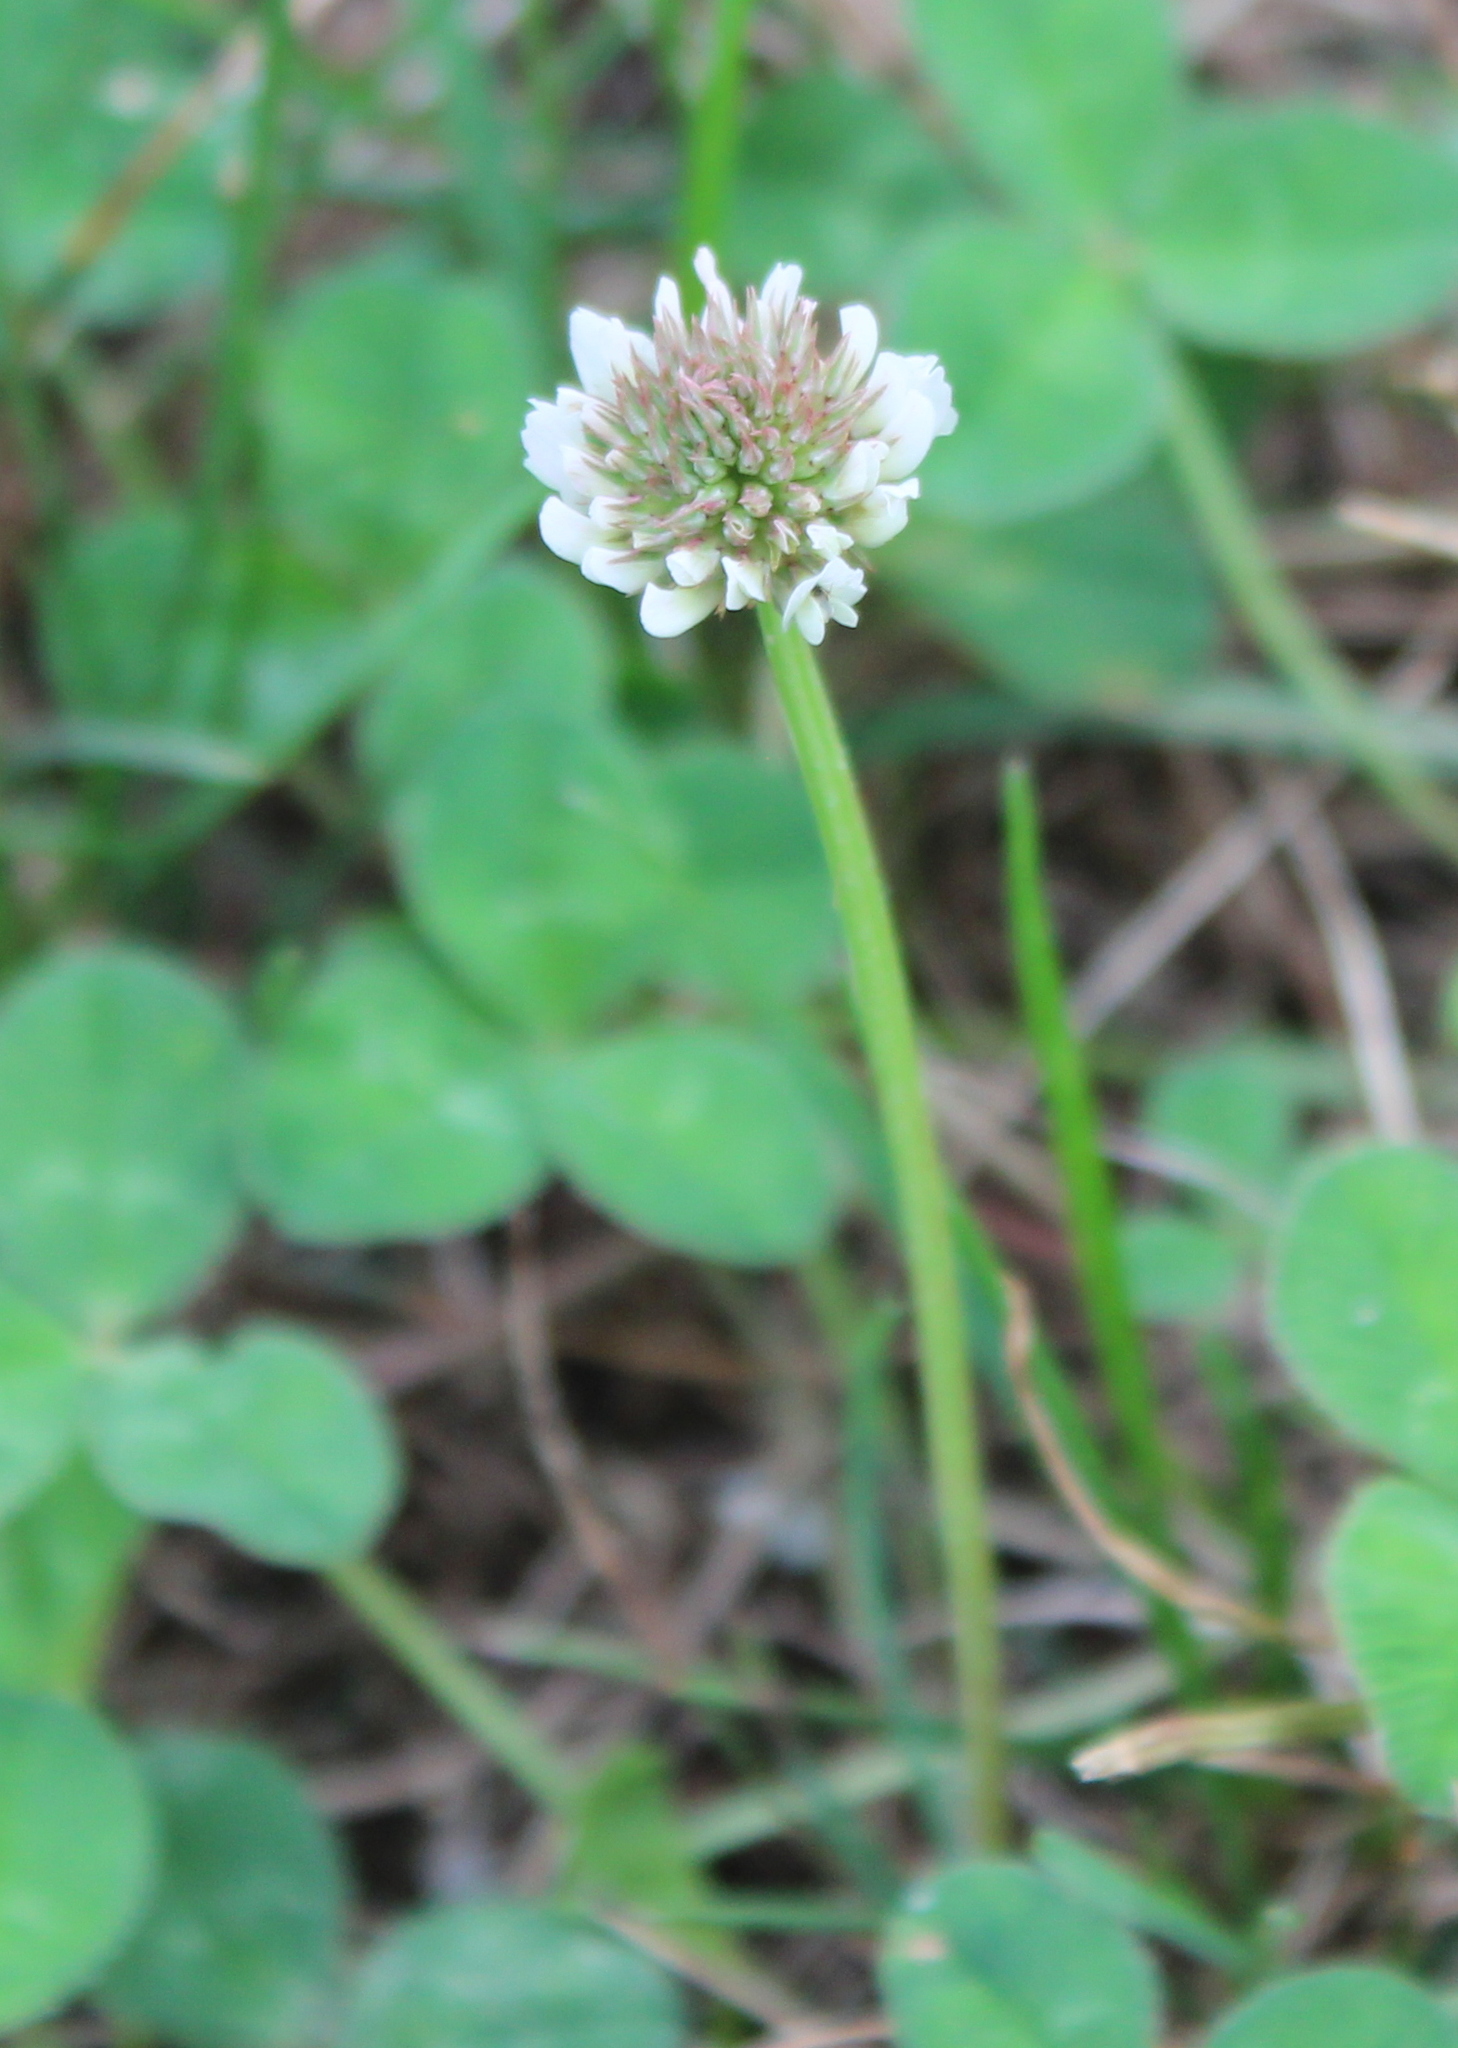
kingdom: Plantae
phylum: Tracheophyta
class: Magnoliopsida
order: Fabales
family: Fabaceae
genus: Trifolium
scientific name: Trifolium repens
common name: White clover
